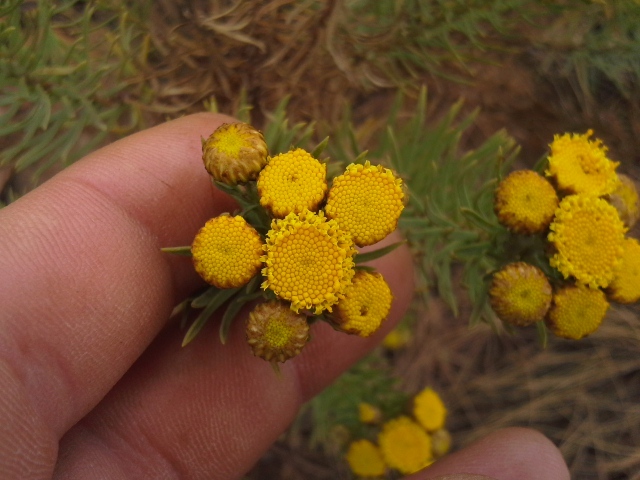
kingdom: Plantae
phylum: Tracheophyta
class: Magnoliopsida
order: Asterales
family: Asteraceae
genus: Phymaspermum
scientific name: Phymaspermum athanasioides
